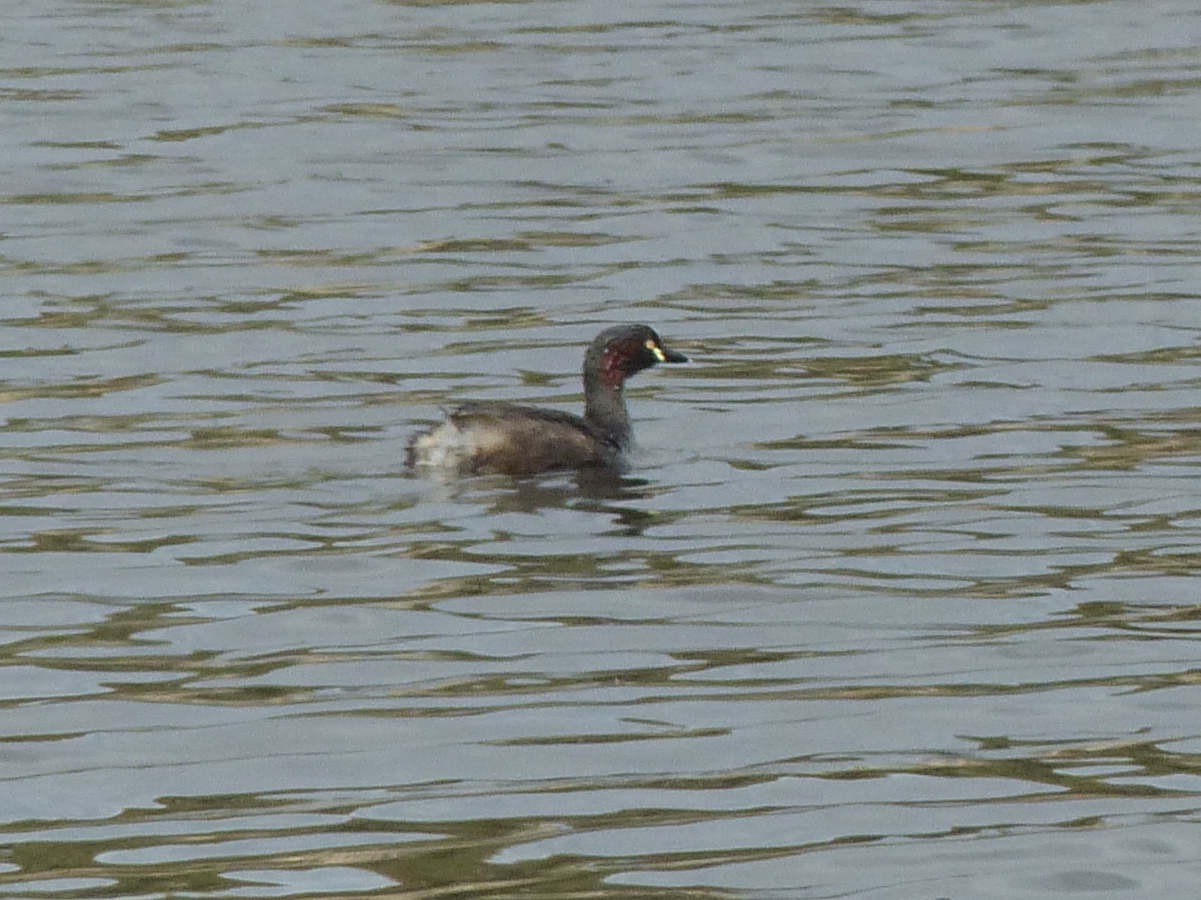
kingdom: Animalia
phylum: Chordata
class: Aves
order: Podicipediformes
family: Podicipedidae
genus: Tachybaptus
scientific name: Tachybaptus novaehollandiae
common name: Australasian grebe
